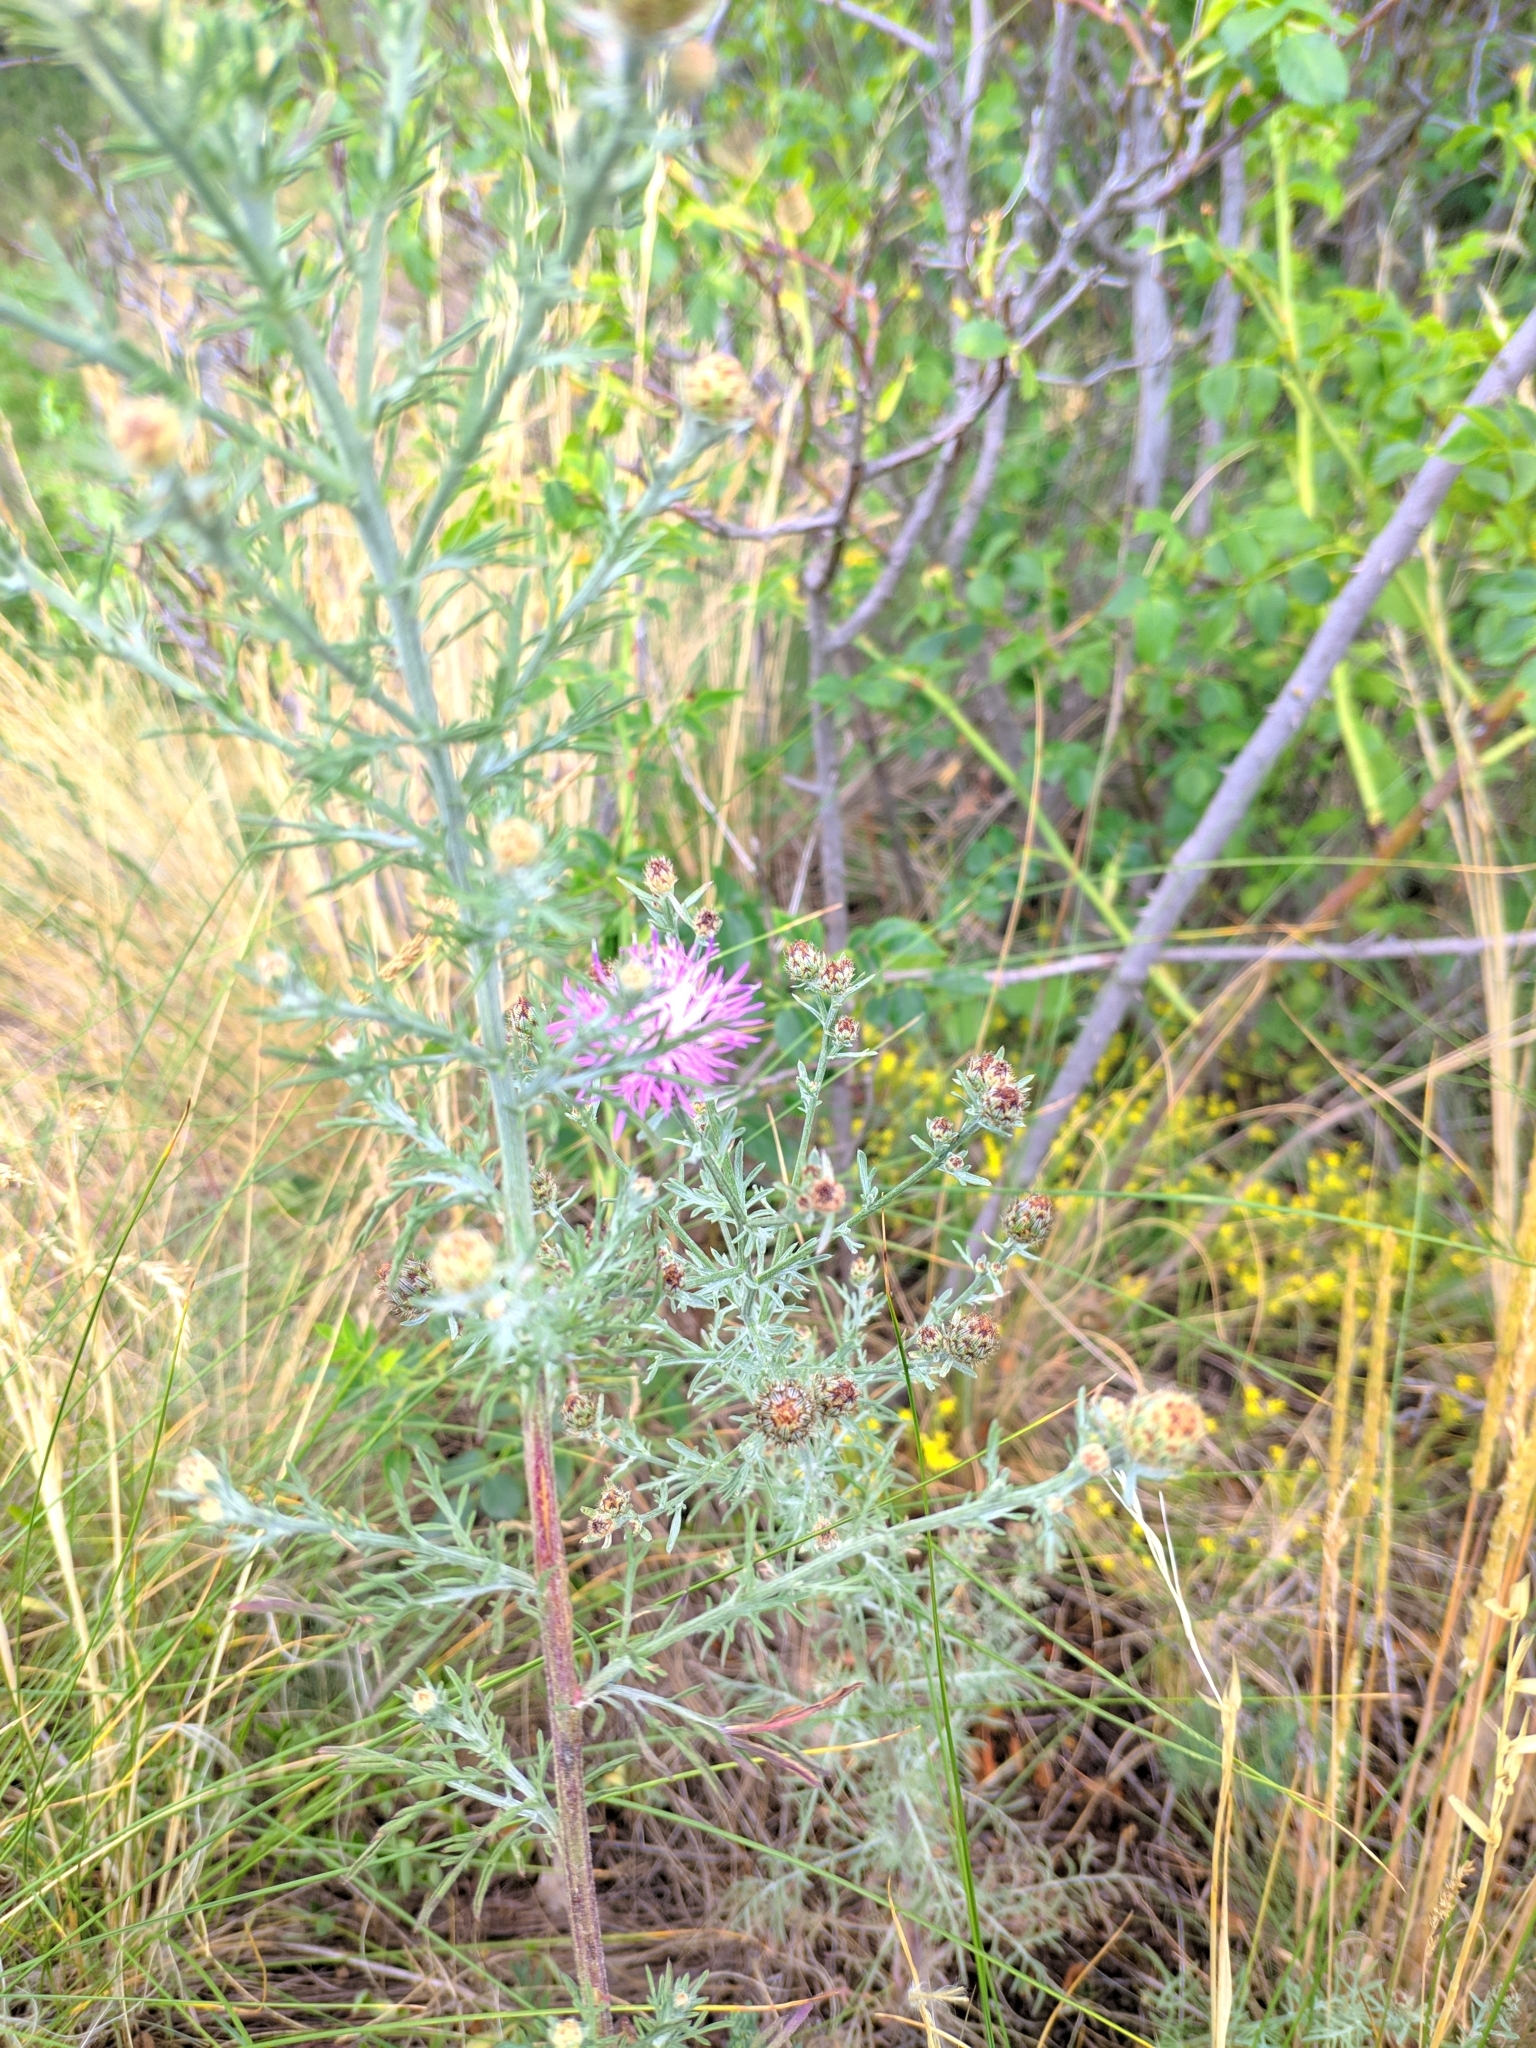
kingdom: Plantae
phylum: Tracheophyta
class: Magnoliopsida
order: Asterales
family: Asteraceae
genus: Centaurea
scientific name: Centaurea stoebe
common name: Spotted knapweed
